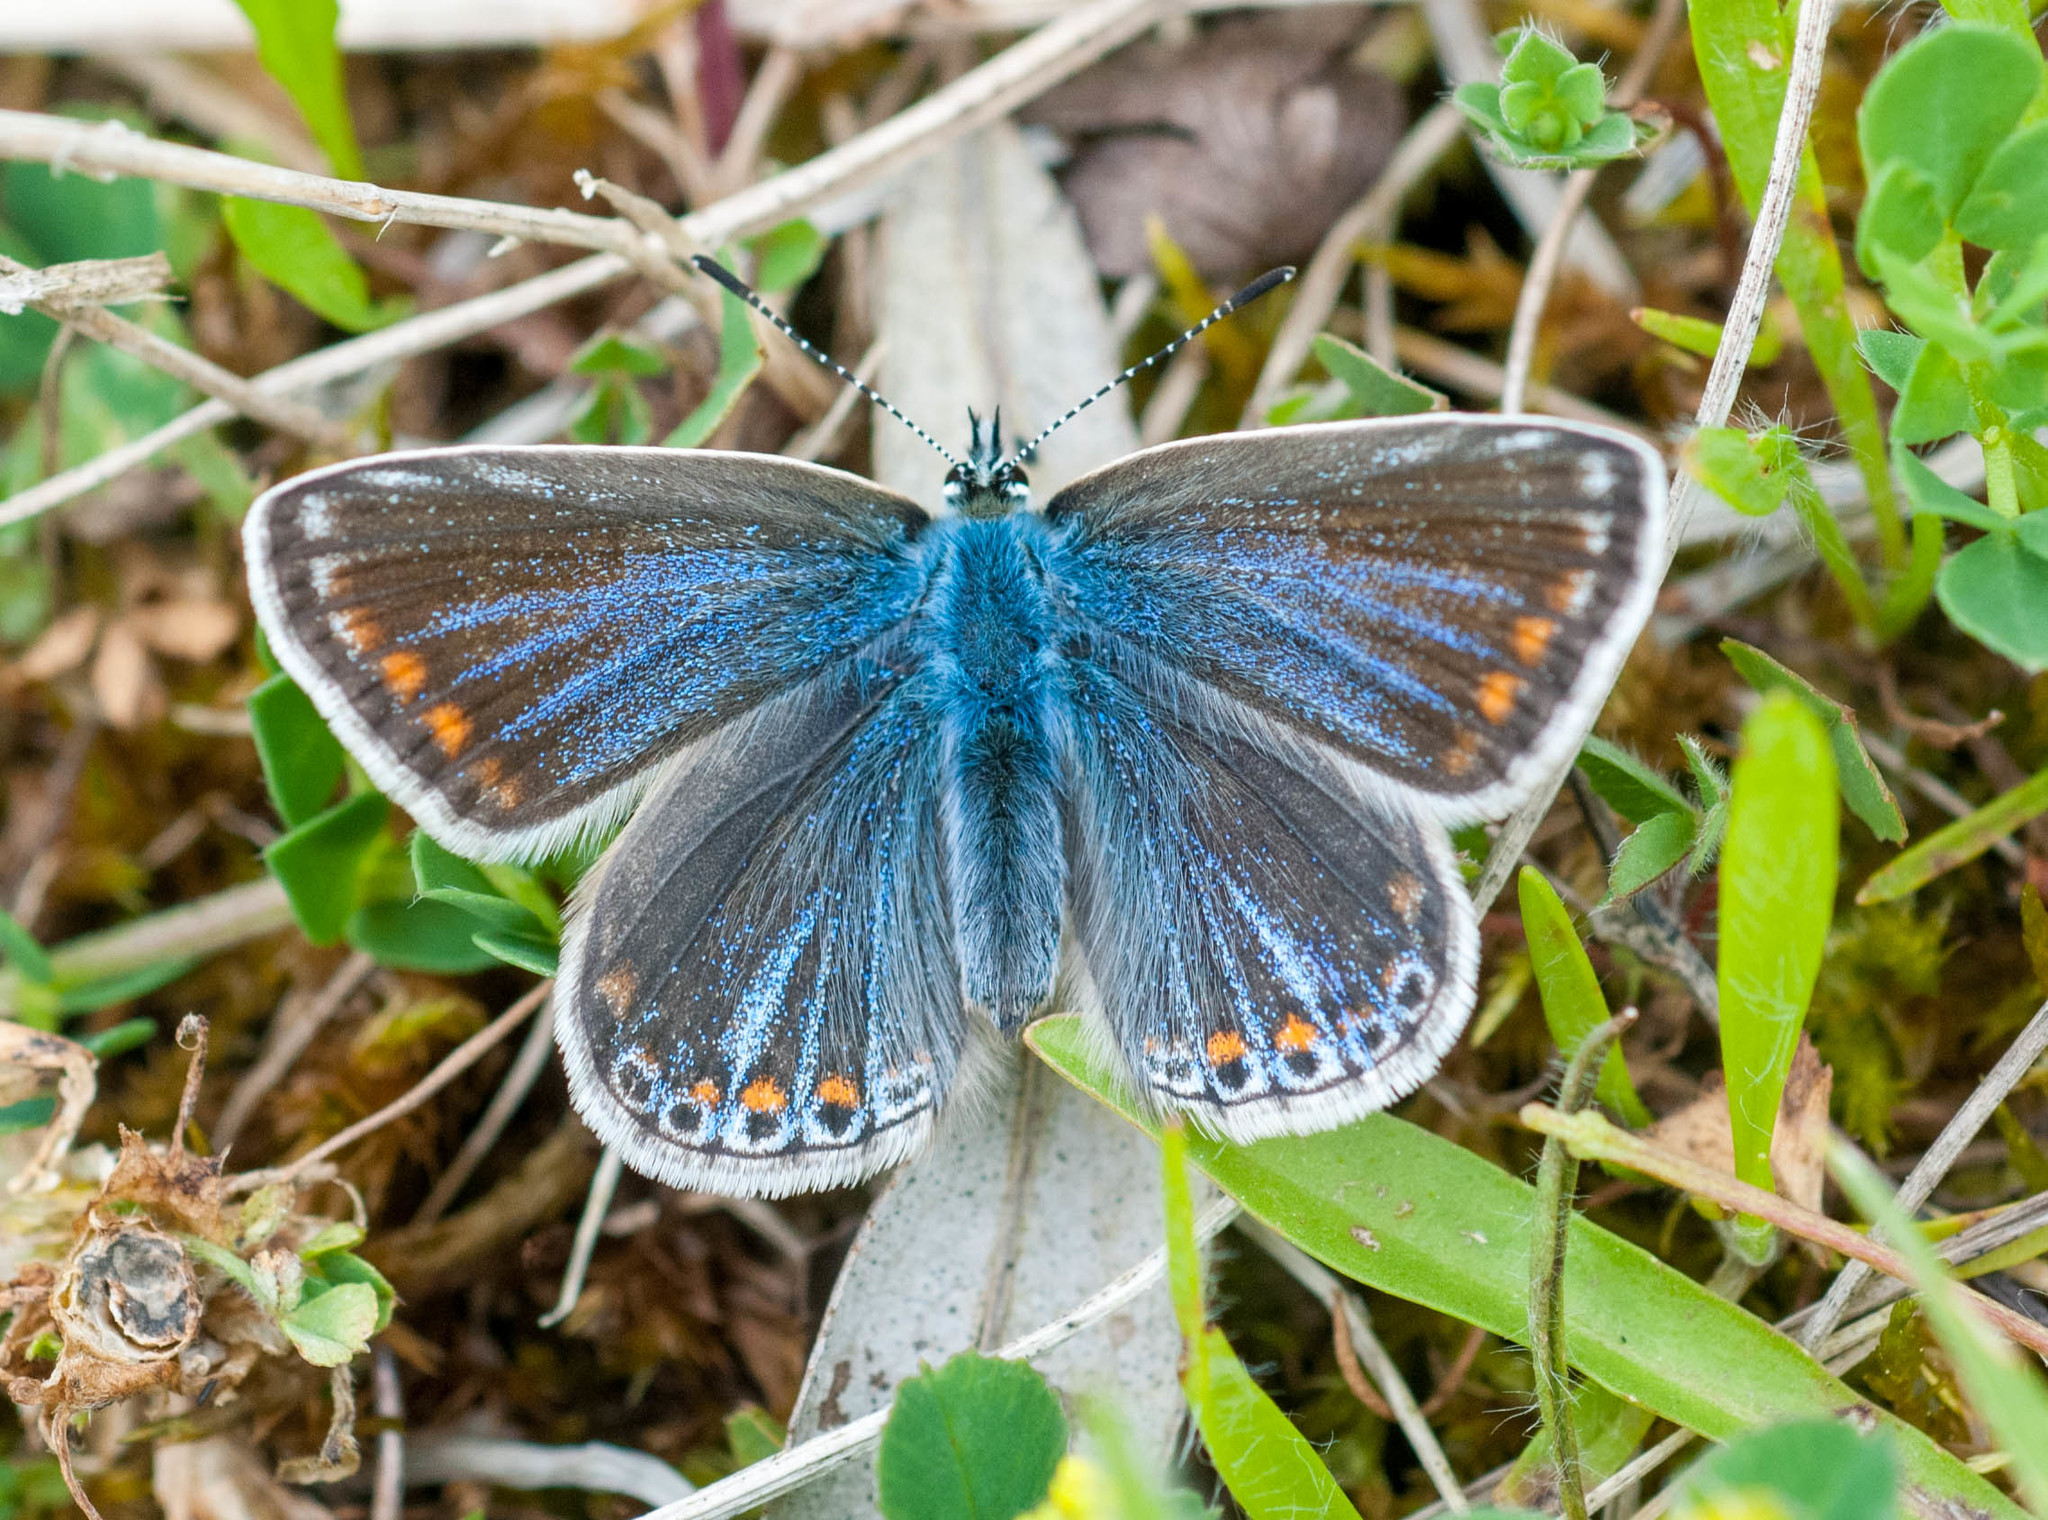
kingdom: Animalia
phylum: Arthropoda
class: Insecta
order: Lepidoptera
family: Lycaenidae
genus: Polyommatus
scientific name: Polyommatus icarus
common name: Common blue
